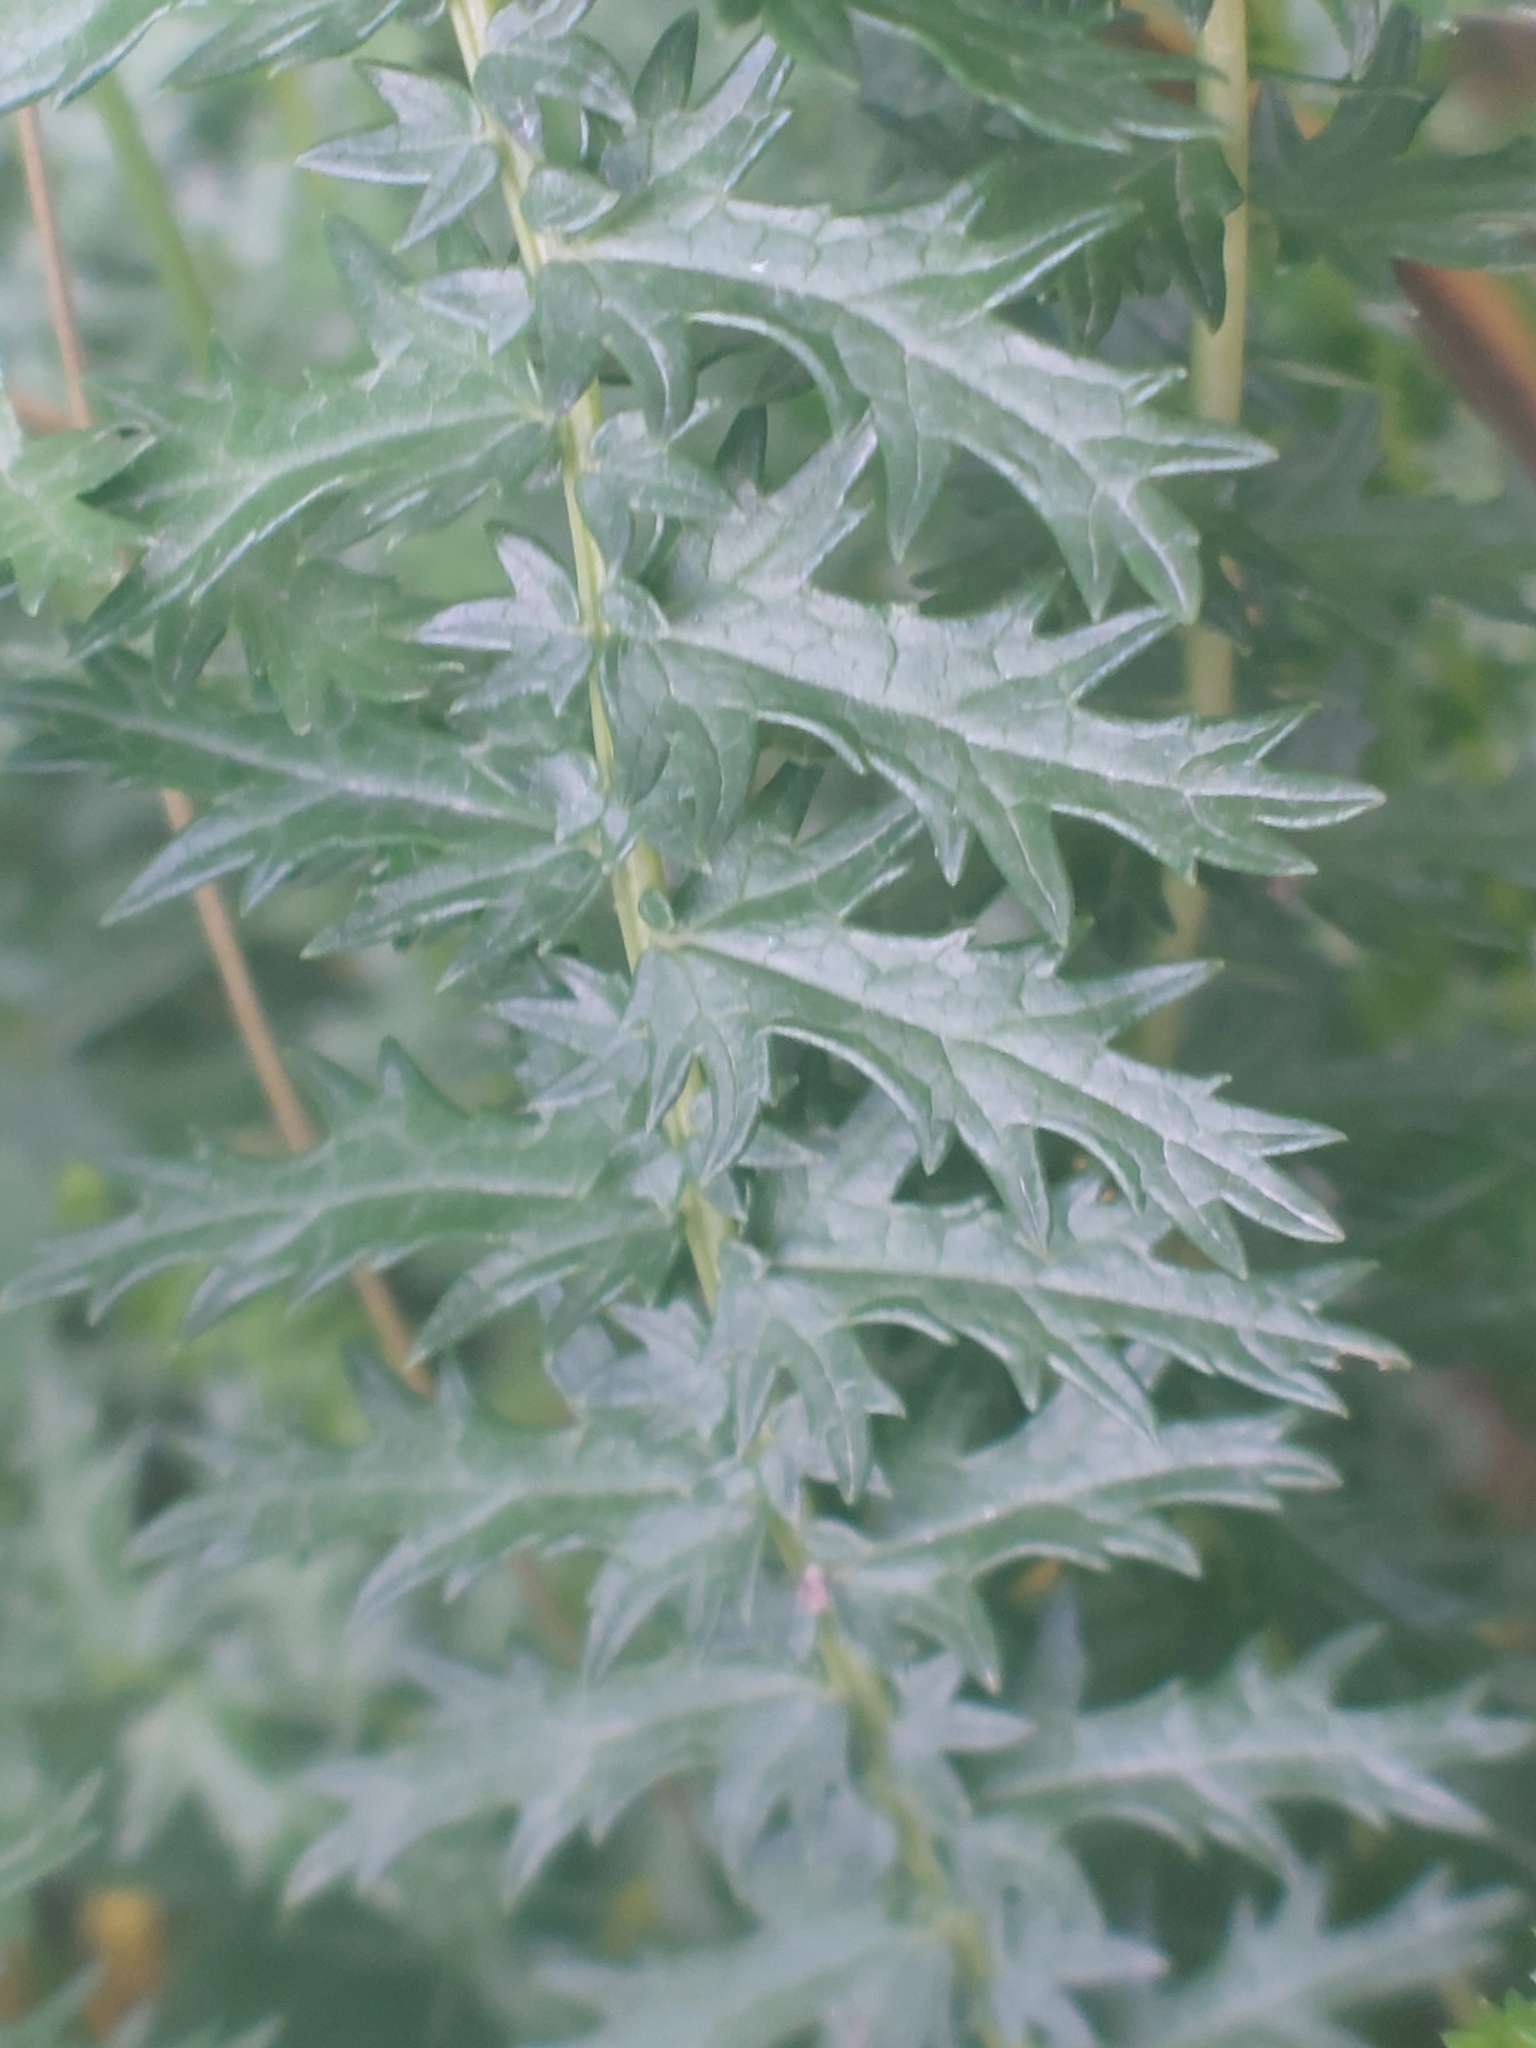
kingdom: Plantae
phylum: Tracheophyta
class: Magnoliopsida
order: Rosales
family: Rosaceae
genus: Filipendula
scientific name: Filipendula vulgaris
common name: Dropwort
